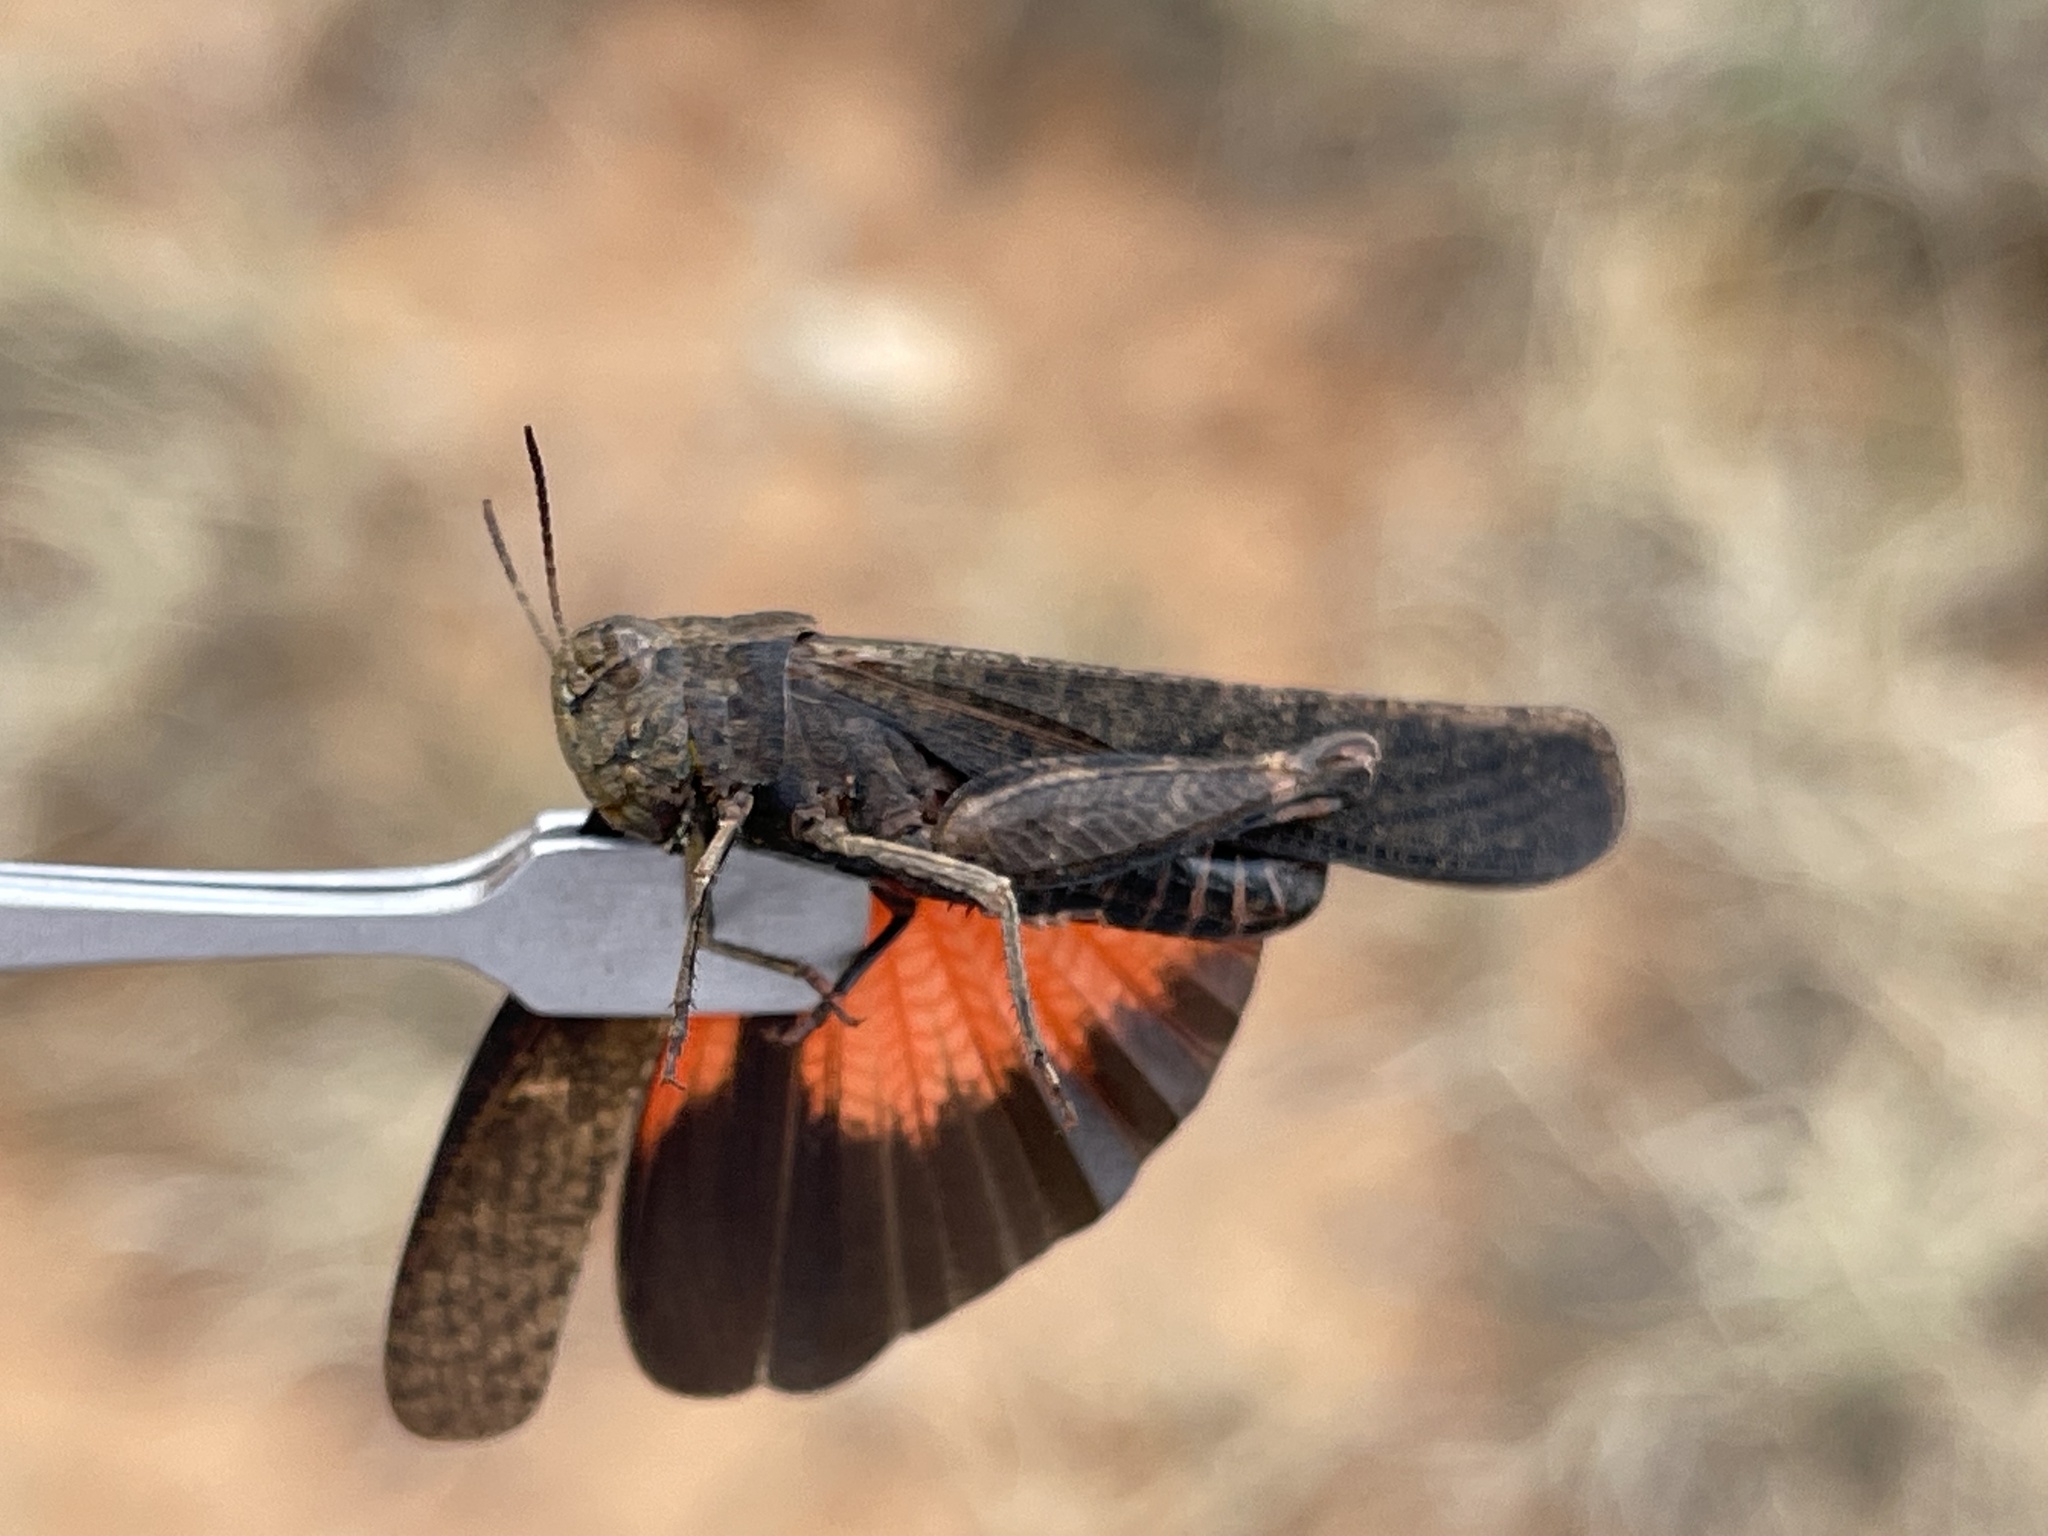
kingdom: Animalia
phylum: Arthropoda
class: Insecta
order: Orthoptera
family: Acrididae
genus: Arphia
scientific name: Arphia pseudo-nietana
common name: Red-winged grasshopper
